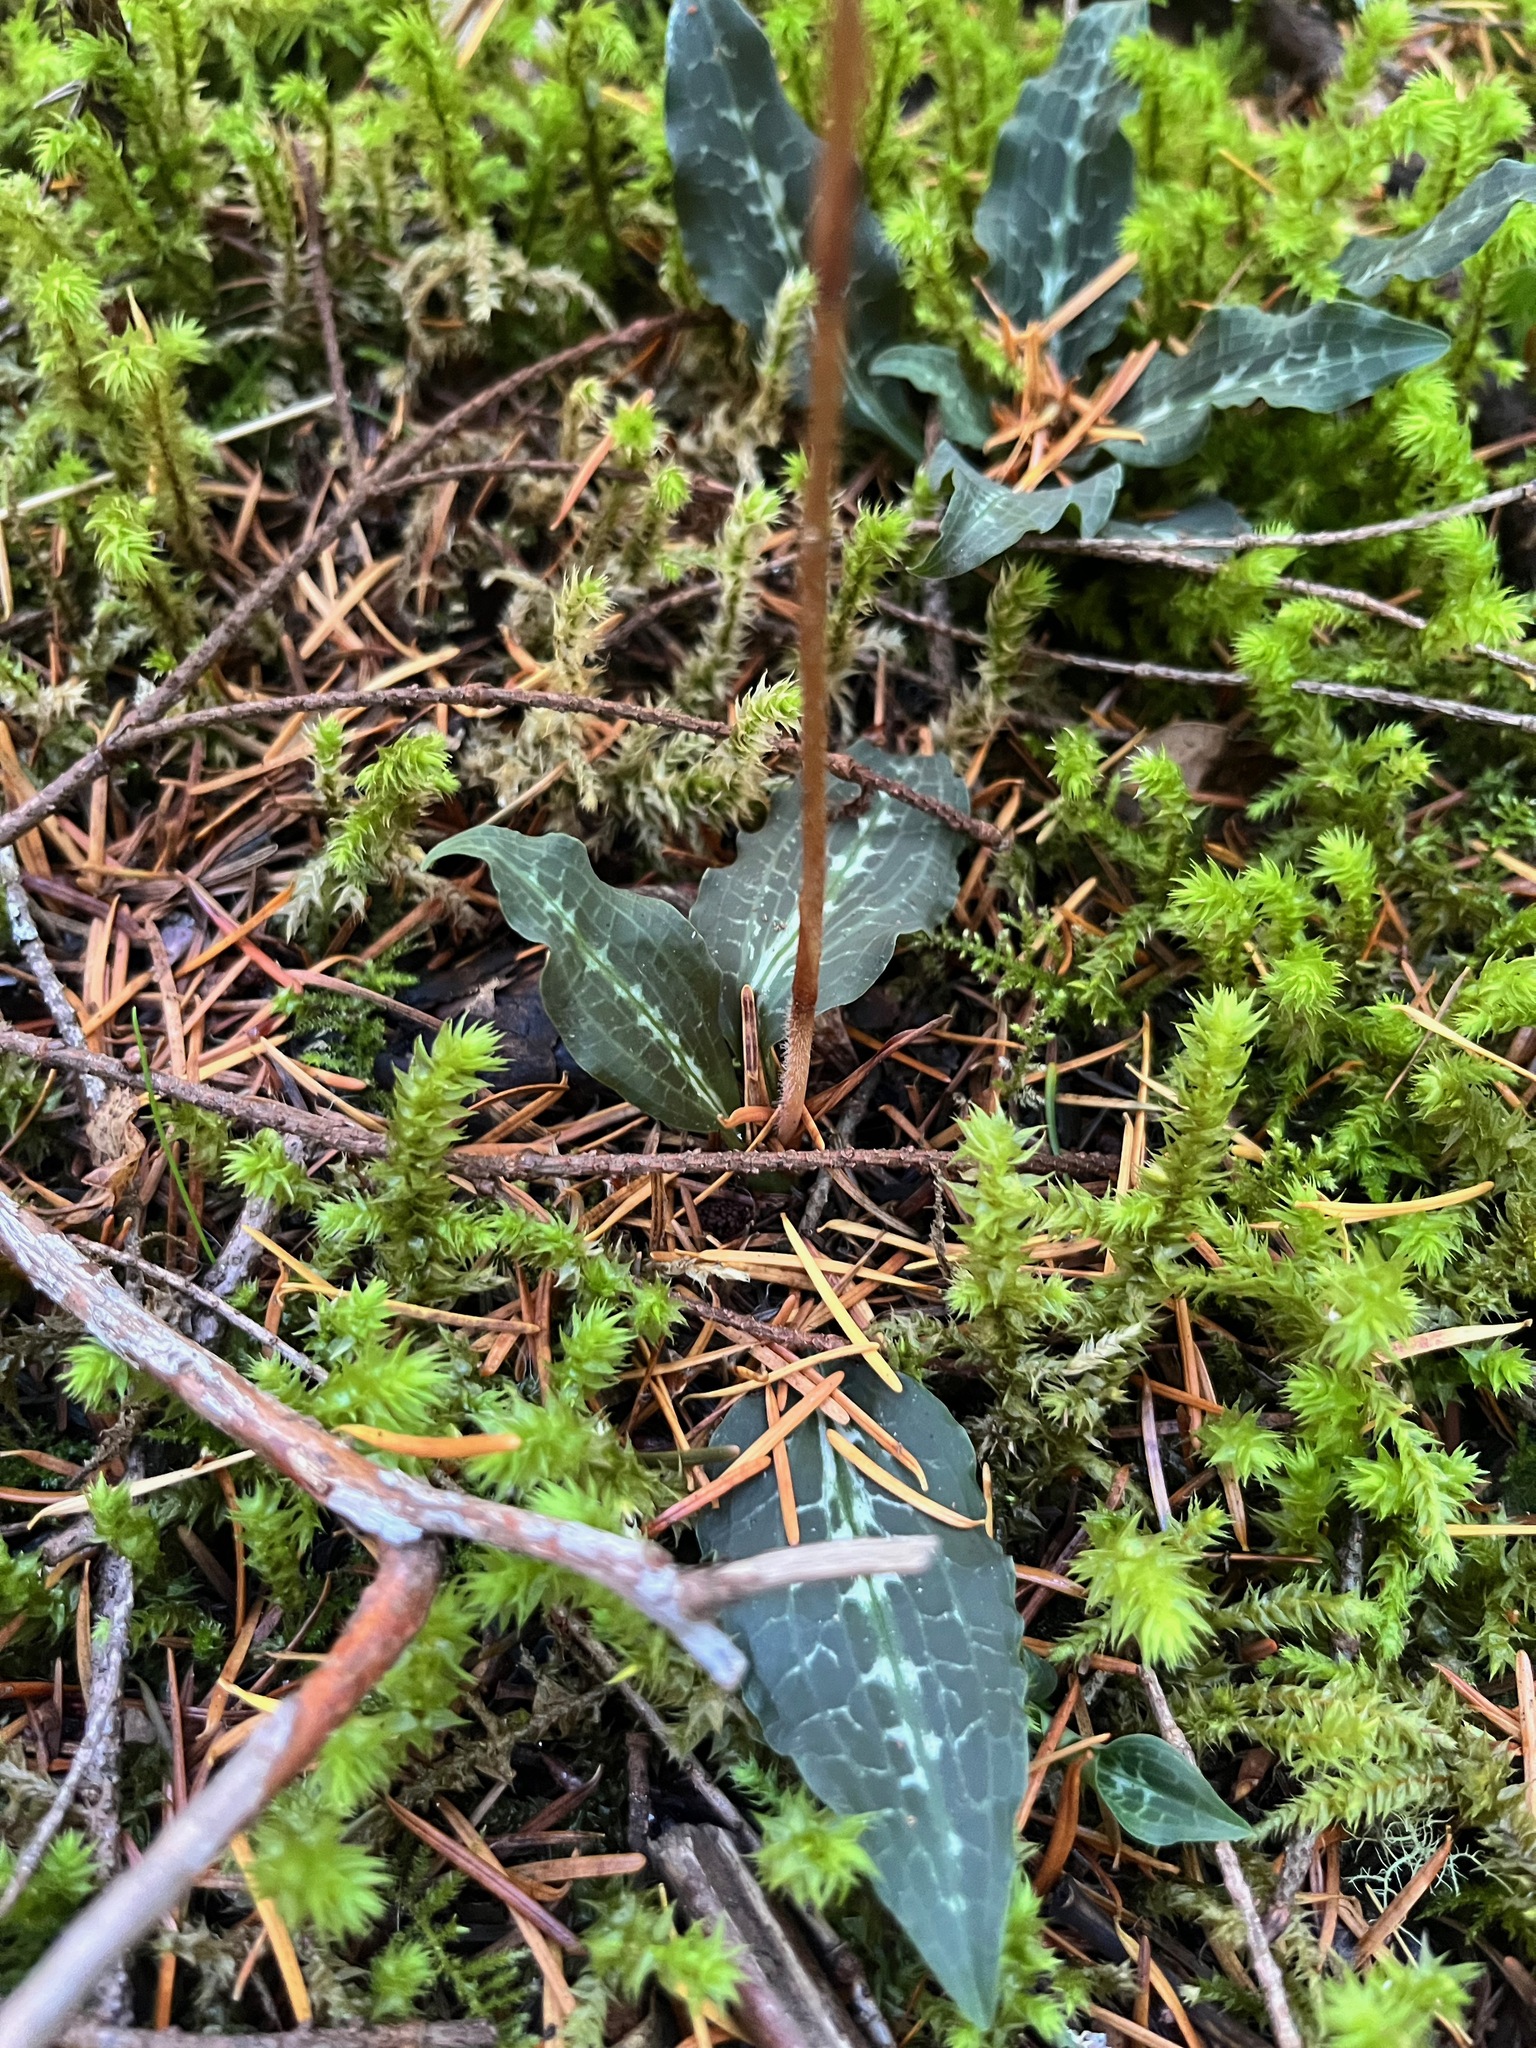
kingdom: Plantae
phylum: Tracheophyta
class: Liliopsida
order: Asparagales
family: Orchidaceae
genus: Goodyera
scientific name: Goodyera oblongifolia
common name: Giant rattlesnake-plantain
